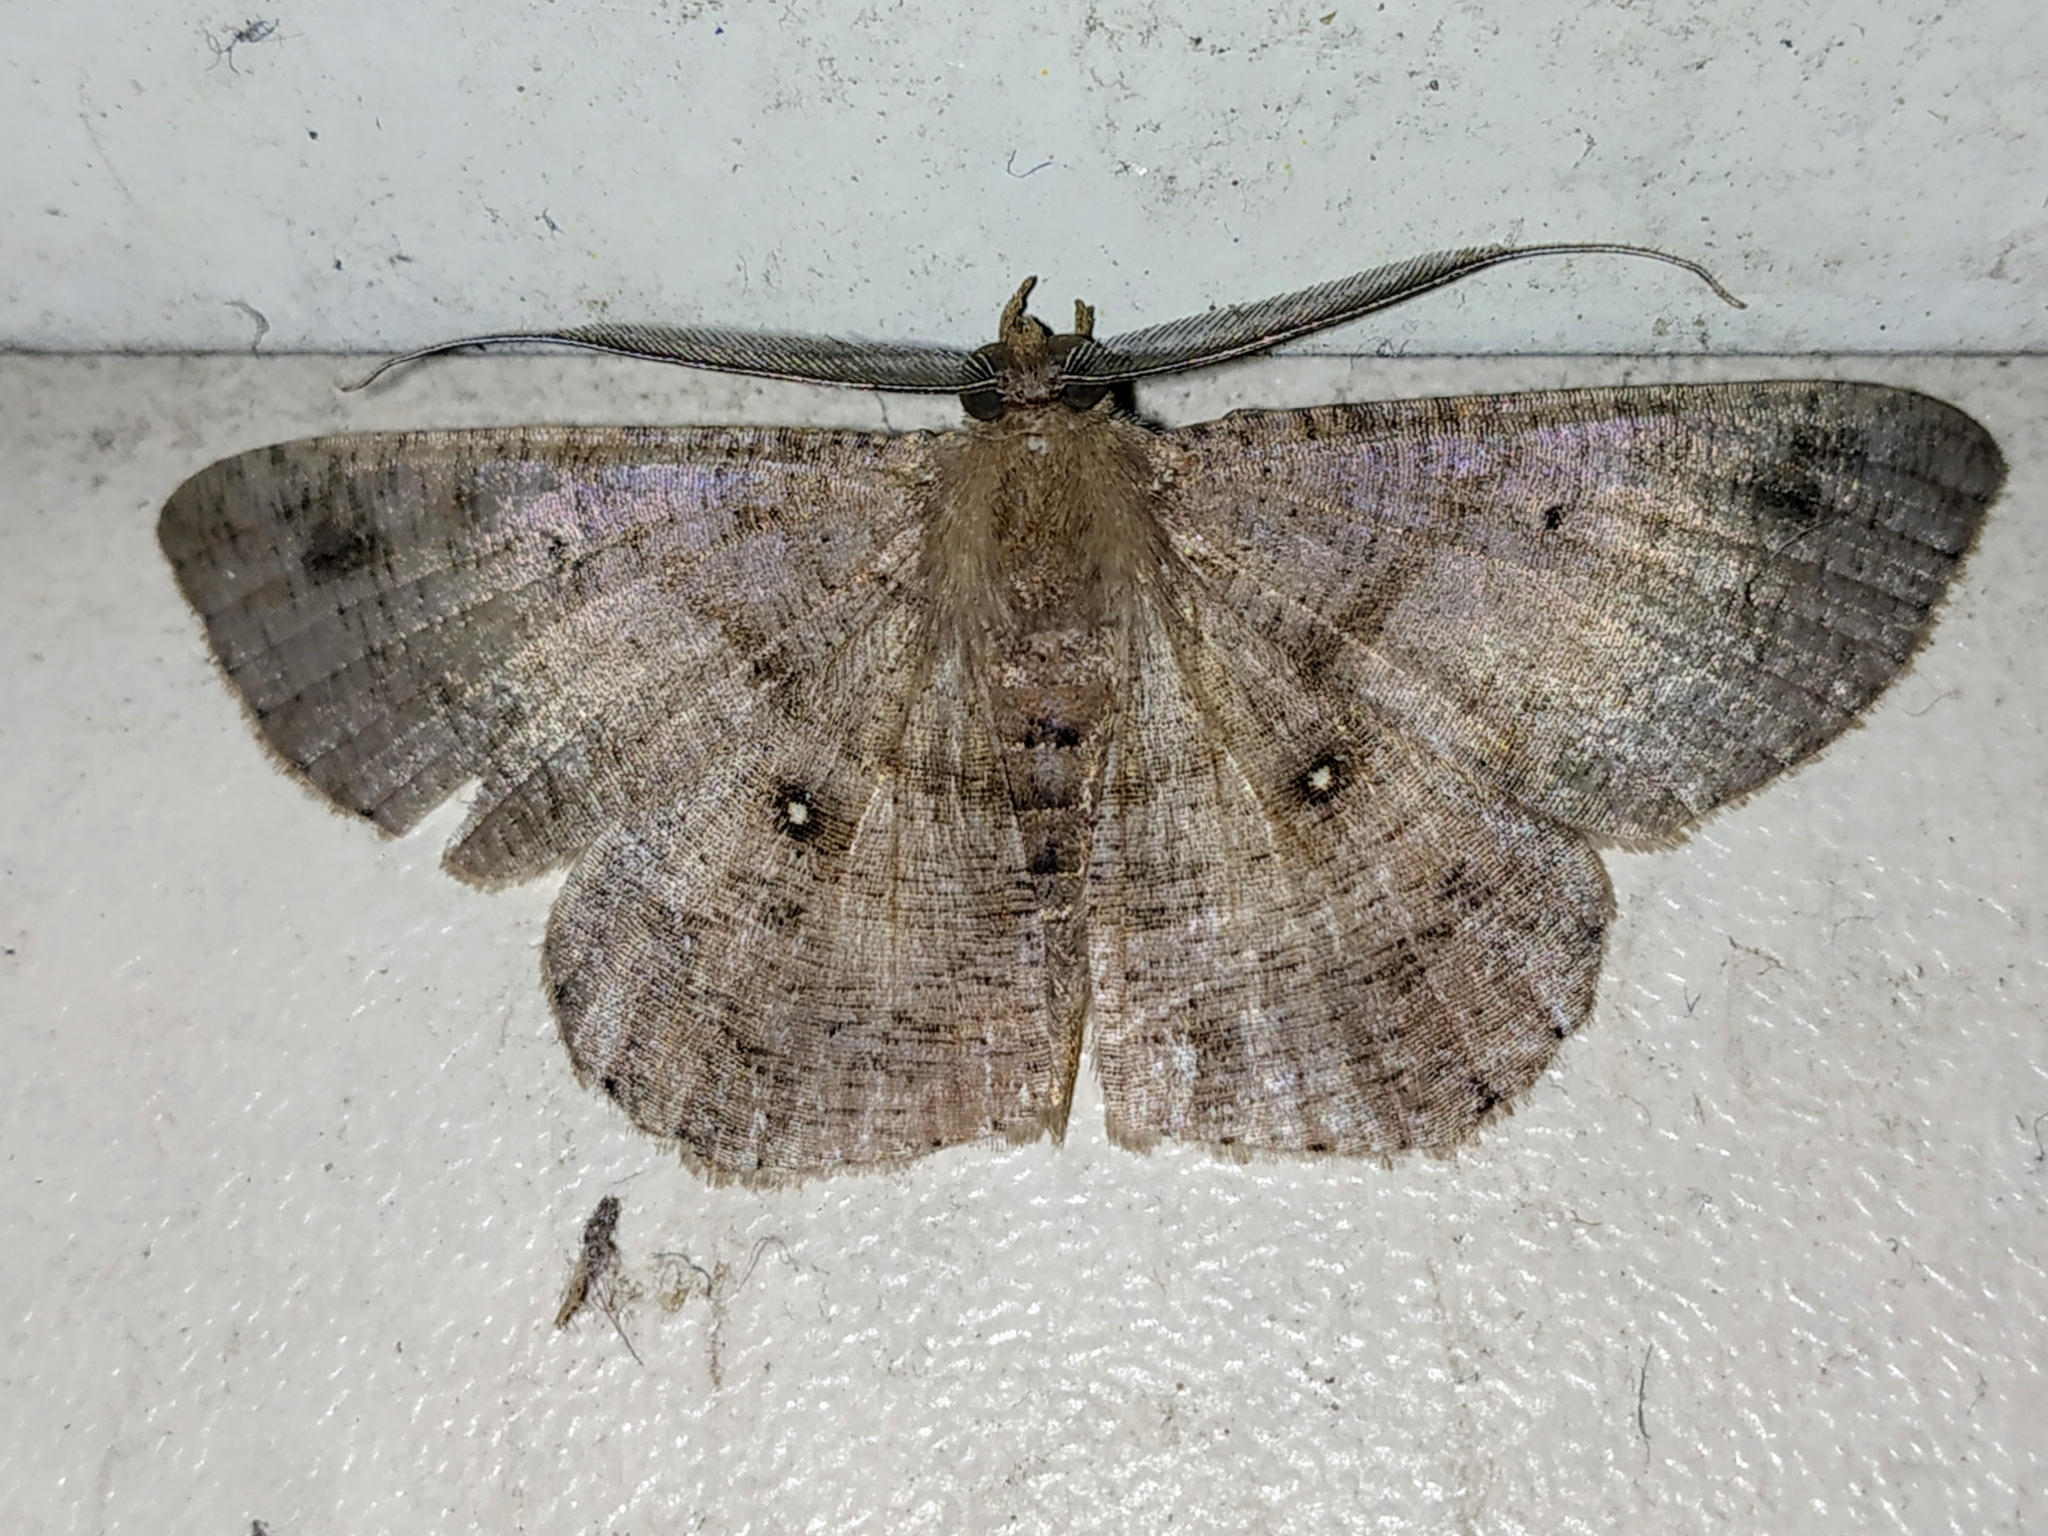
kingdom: Animalia
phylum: Arthropoda
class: Insecta
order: Lepidoptera
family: Geometridae
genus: Petelia
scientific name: Petelia medardaria
